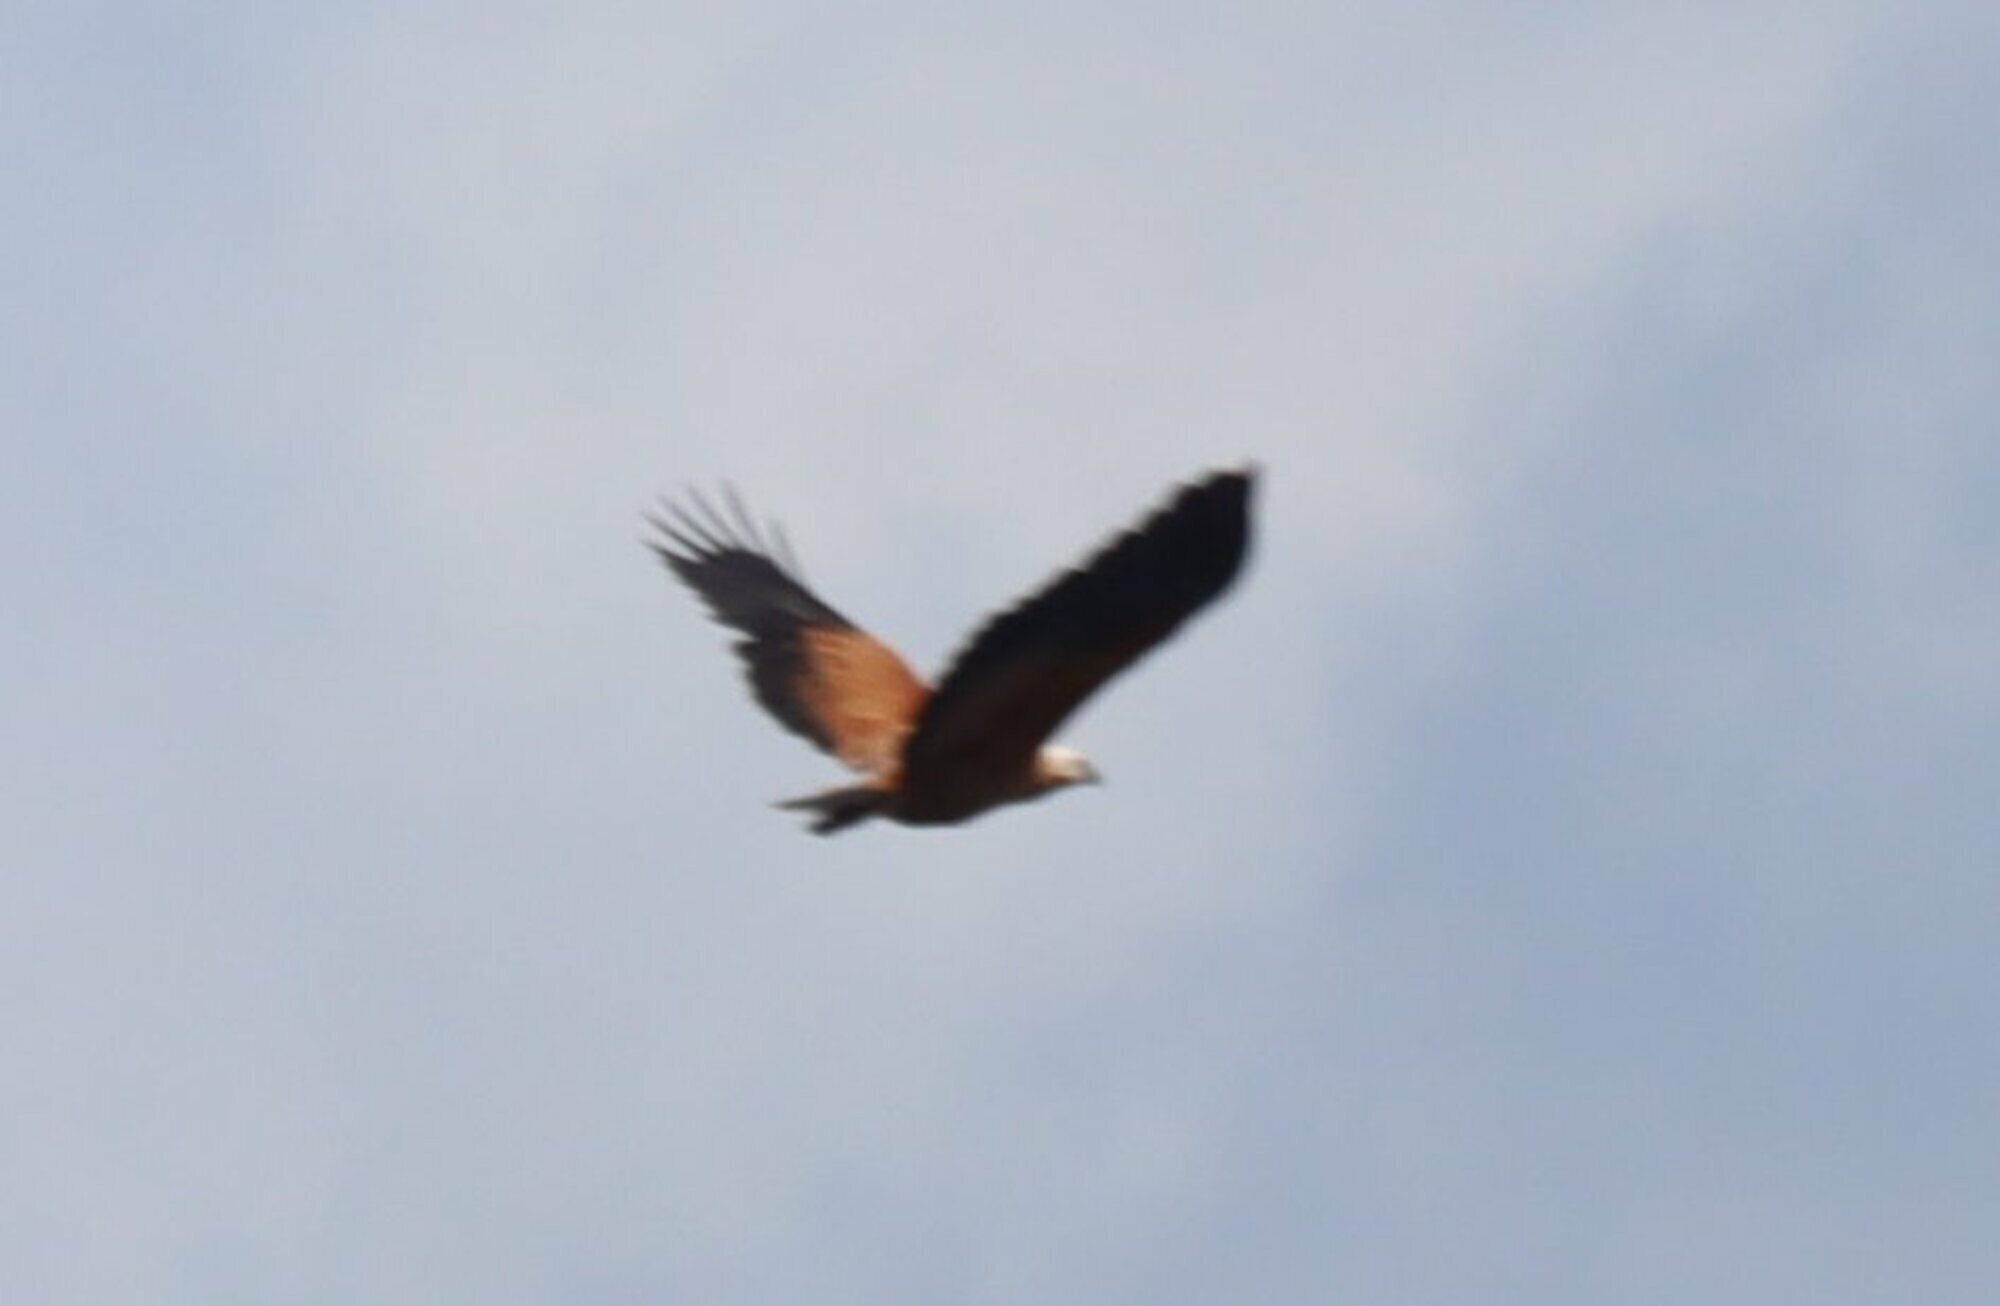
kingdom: Animalia
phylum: Chordata
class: Aves
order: Accipitriformes
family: Accipitridae
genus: Busarellus
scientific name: Busarellus nigricollis
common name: Black-collared hawk
